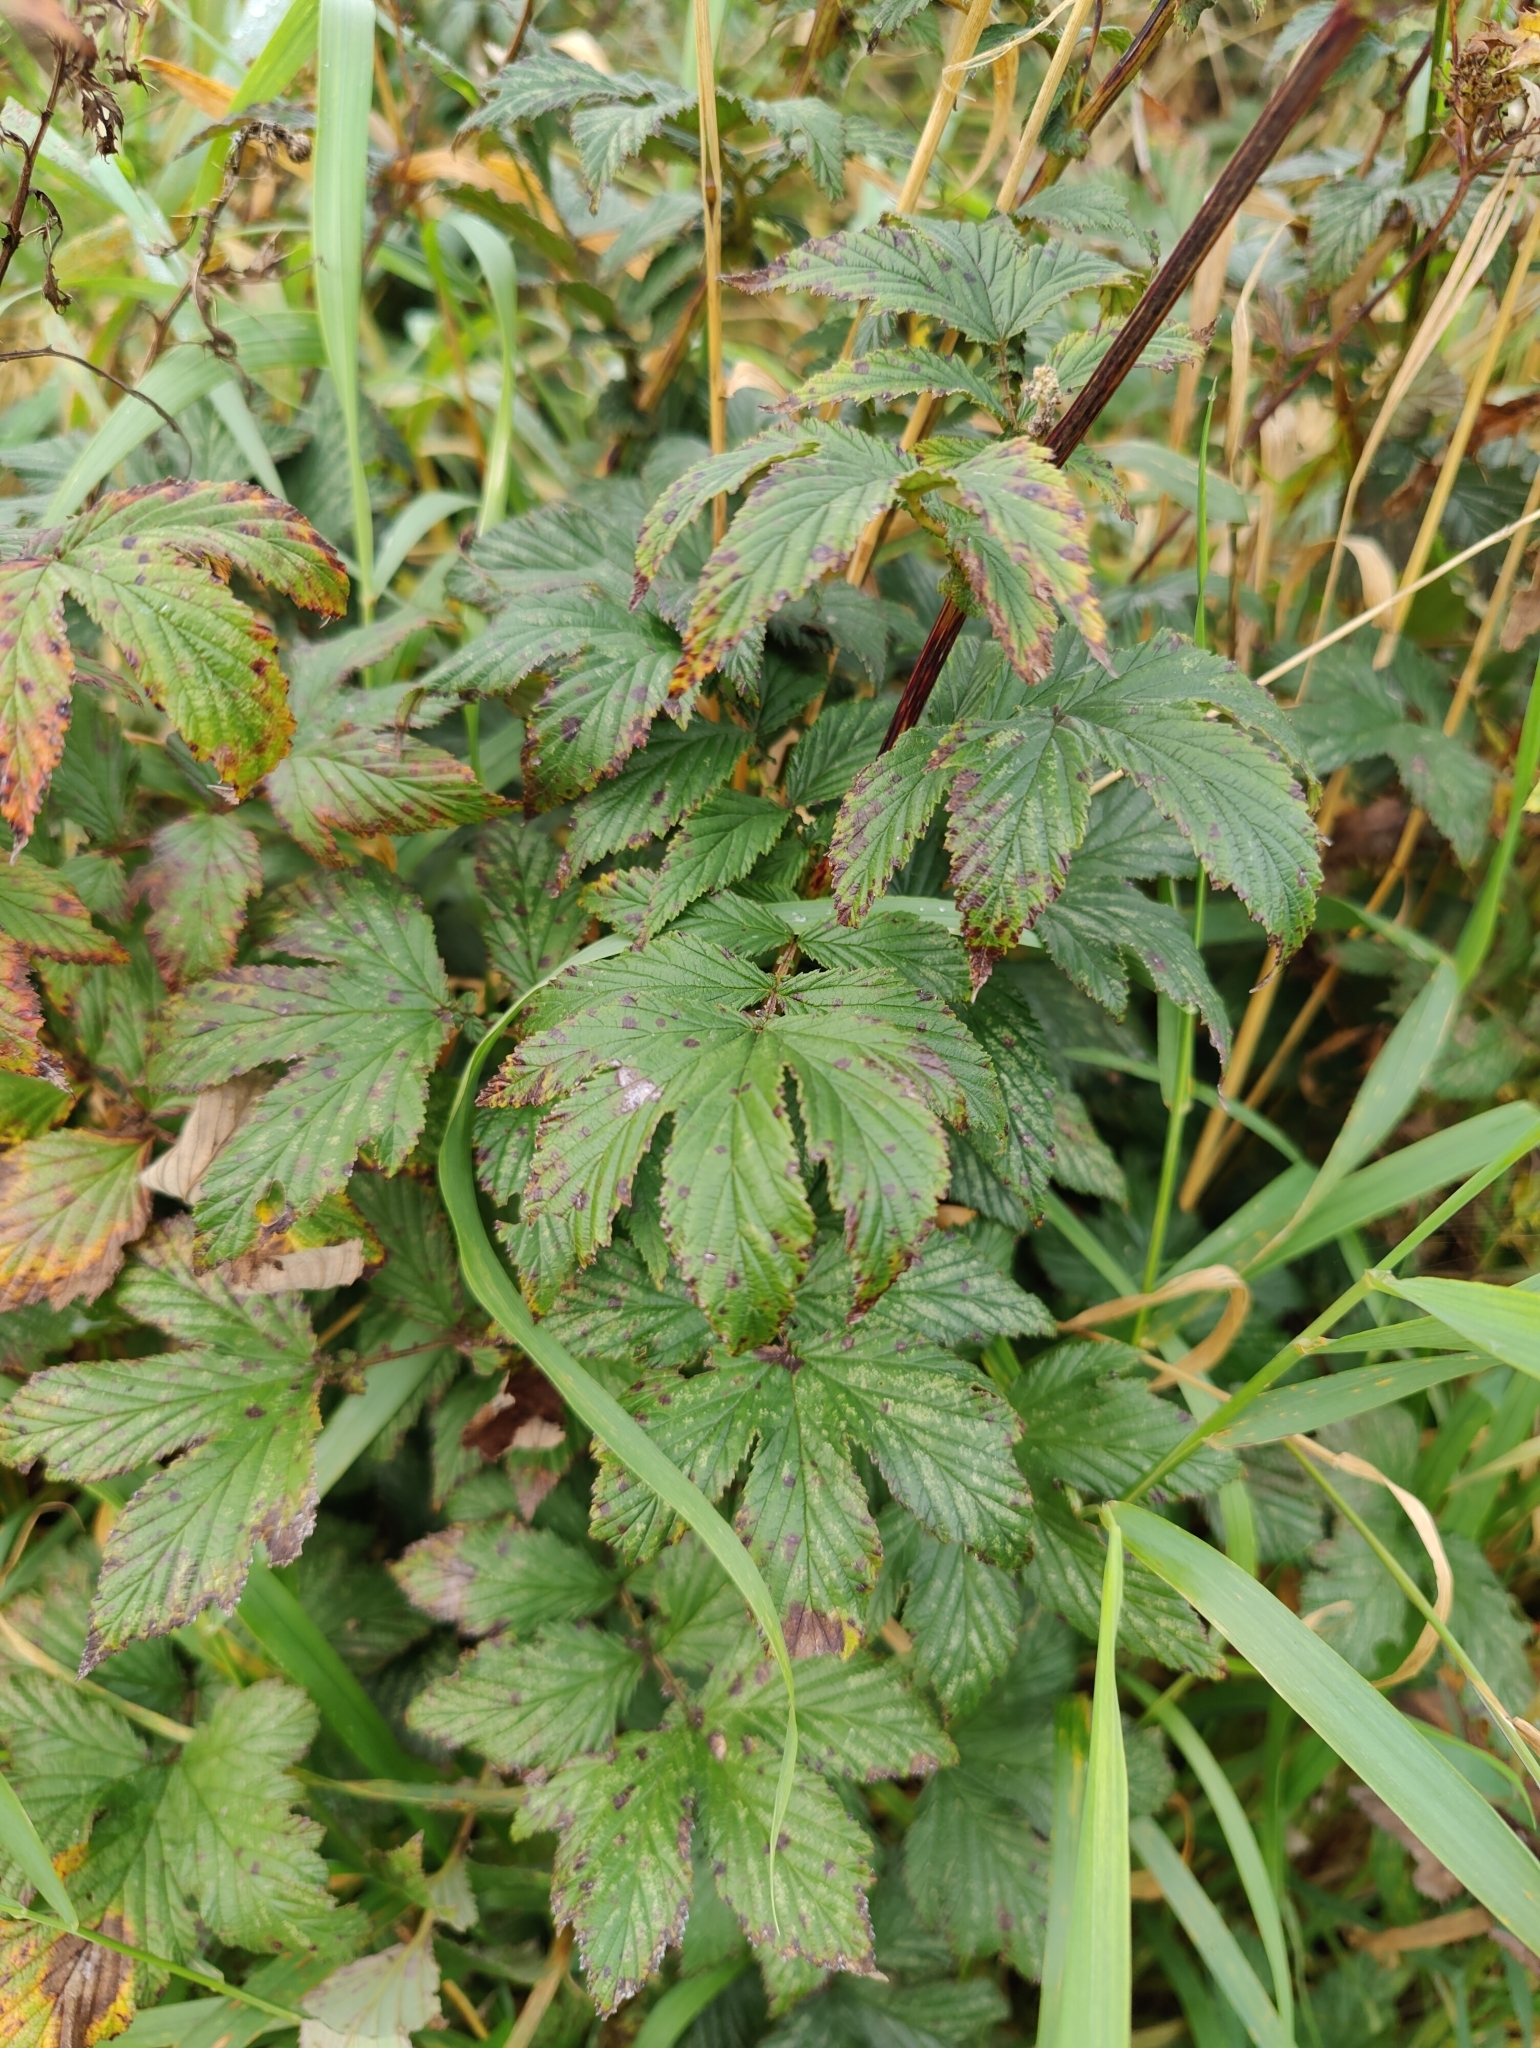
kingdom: Plantae
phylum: Tracheophyta
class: Magnoliopsida
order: Rosales
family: Rosaceae
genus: Filipendula
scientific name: Filipendula ulmaria
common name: Meadowsweet
